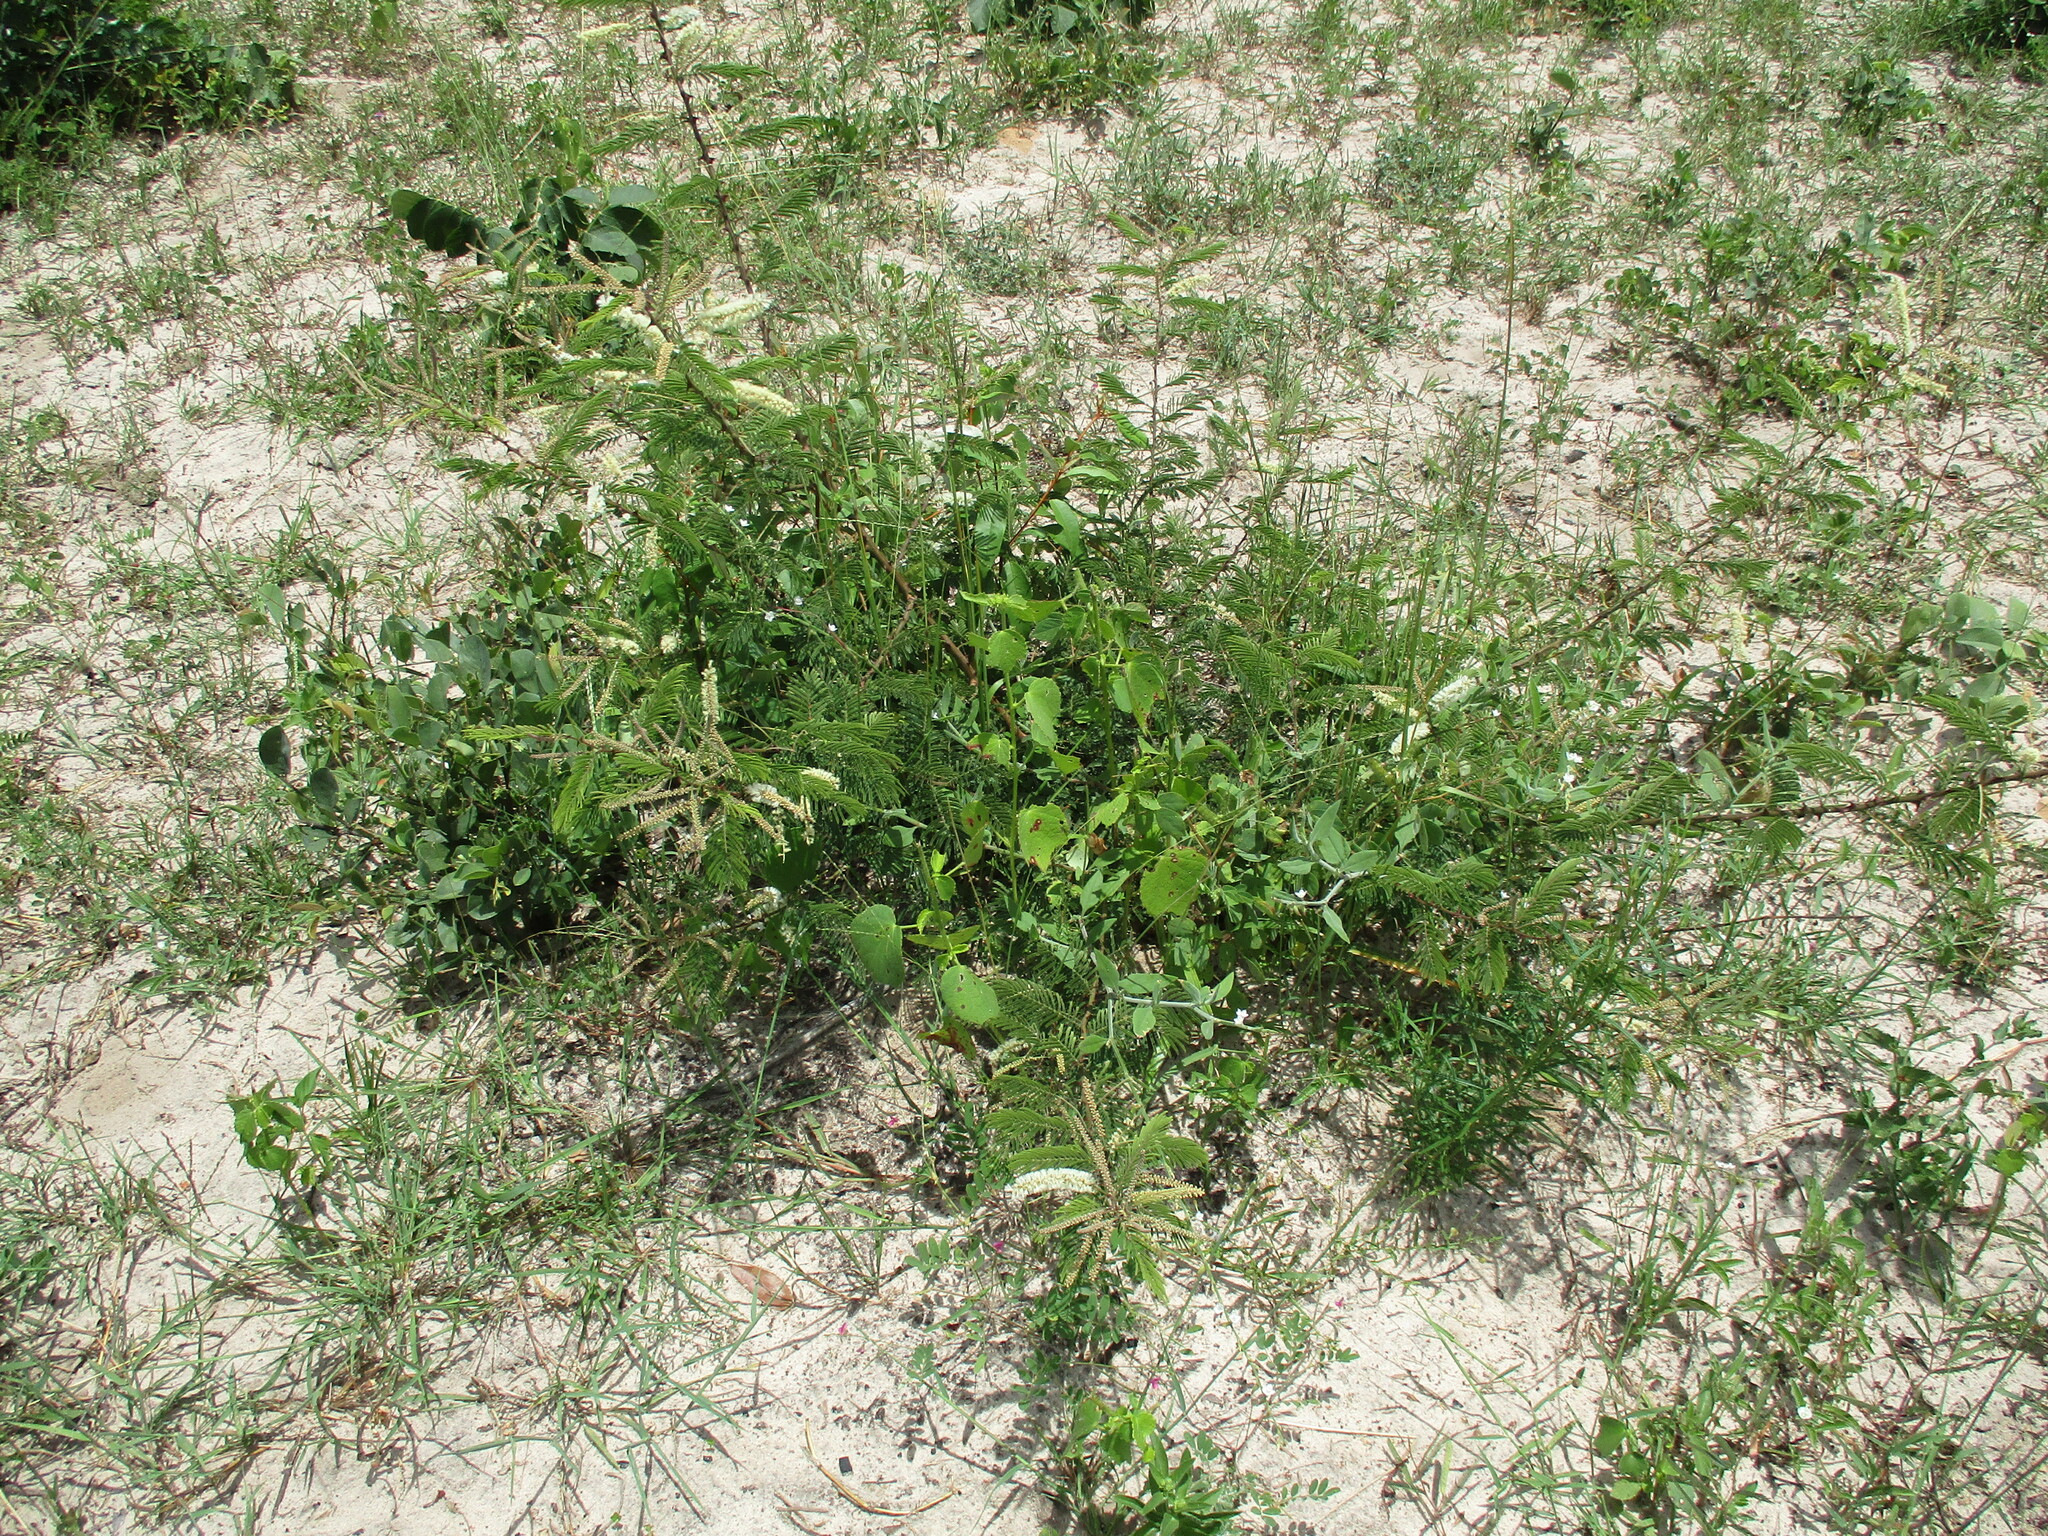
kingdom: Plantae
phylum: Tracheophyta
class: Magnoliopsida
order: Fabales
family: Fabaceae
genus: Senegalia
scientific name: Senegalia ataxacantha
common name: Flame acacia
